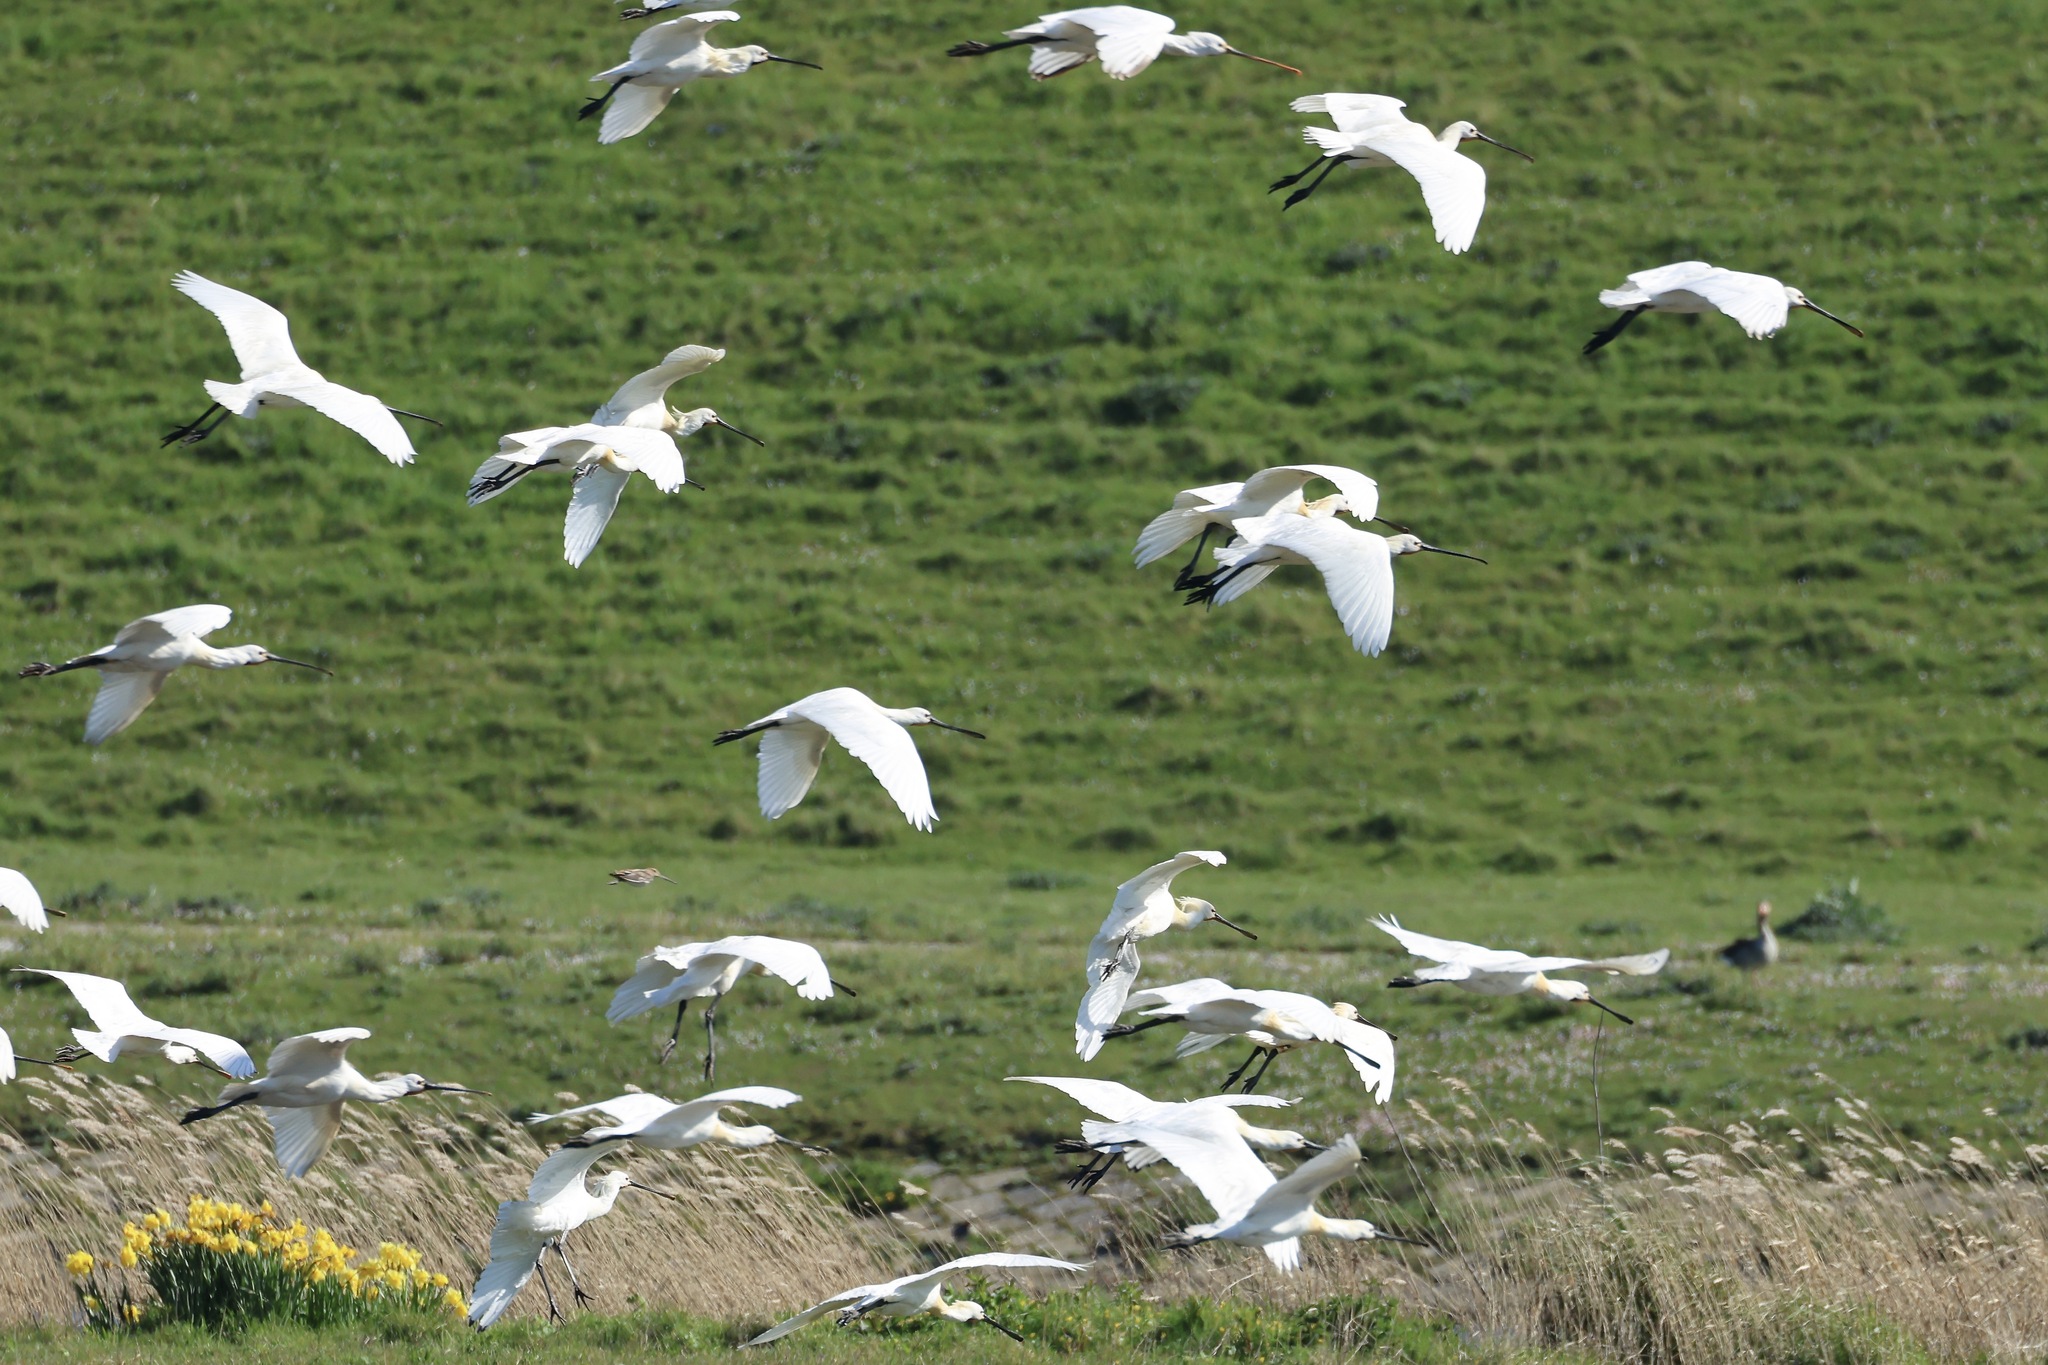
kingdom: Animalia
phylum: Chordata
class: Aves
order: Pelecaniformes
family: Threskiornithidae
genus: Platalea
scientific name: Platalea leucorodia
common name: Eurasian spoonbill
